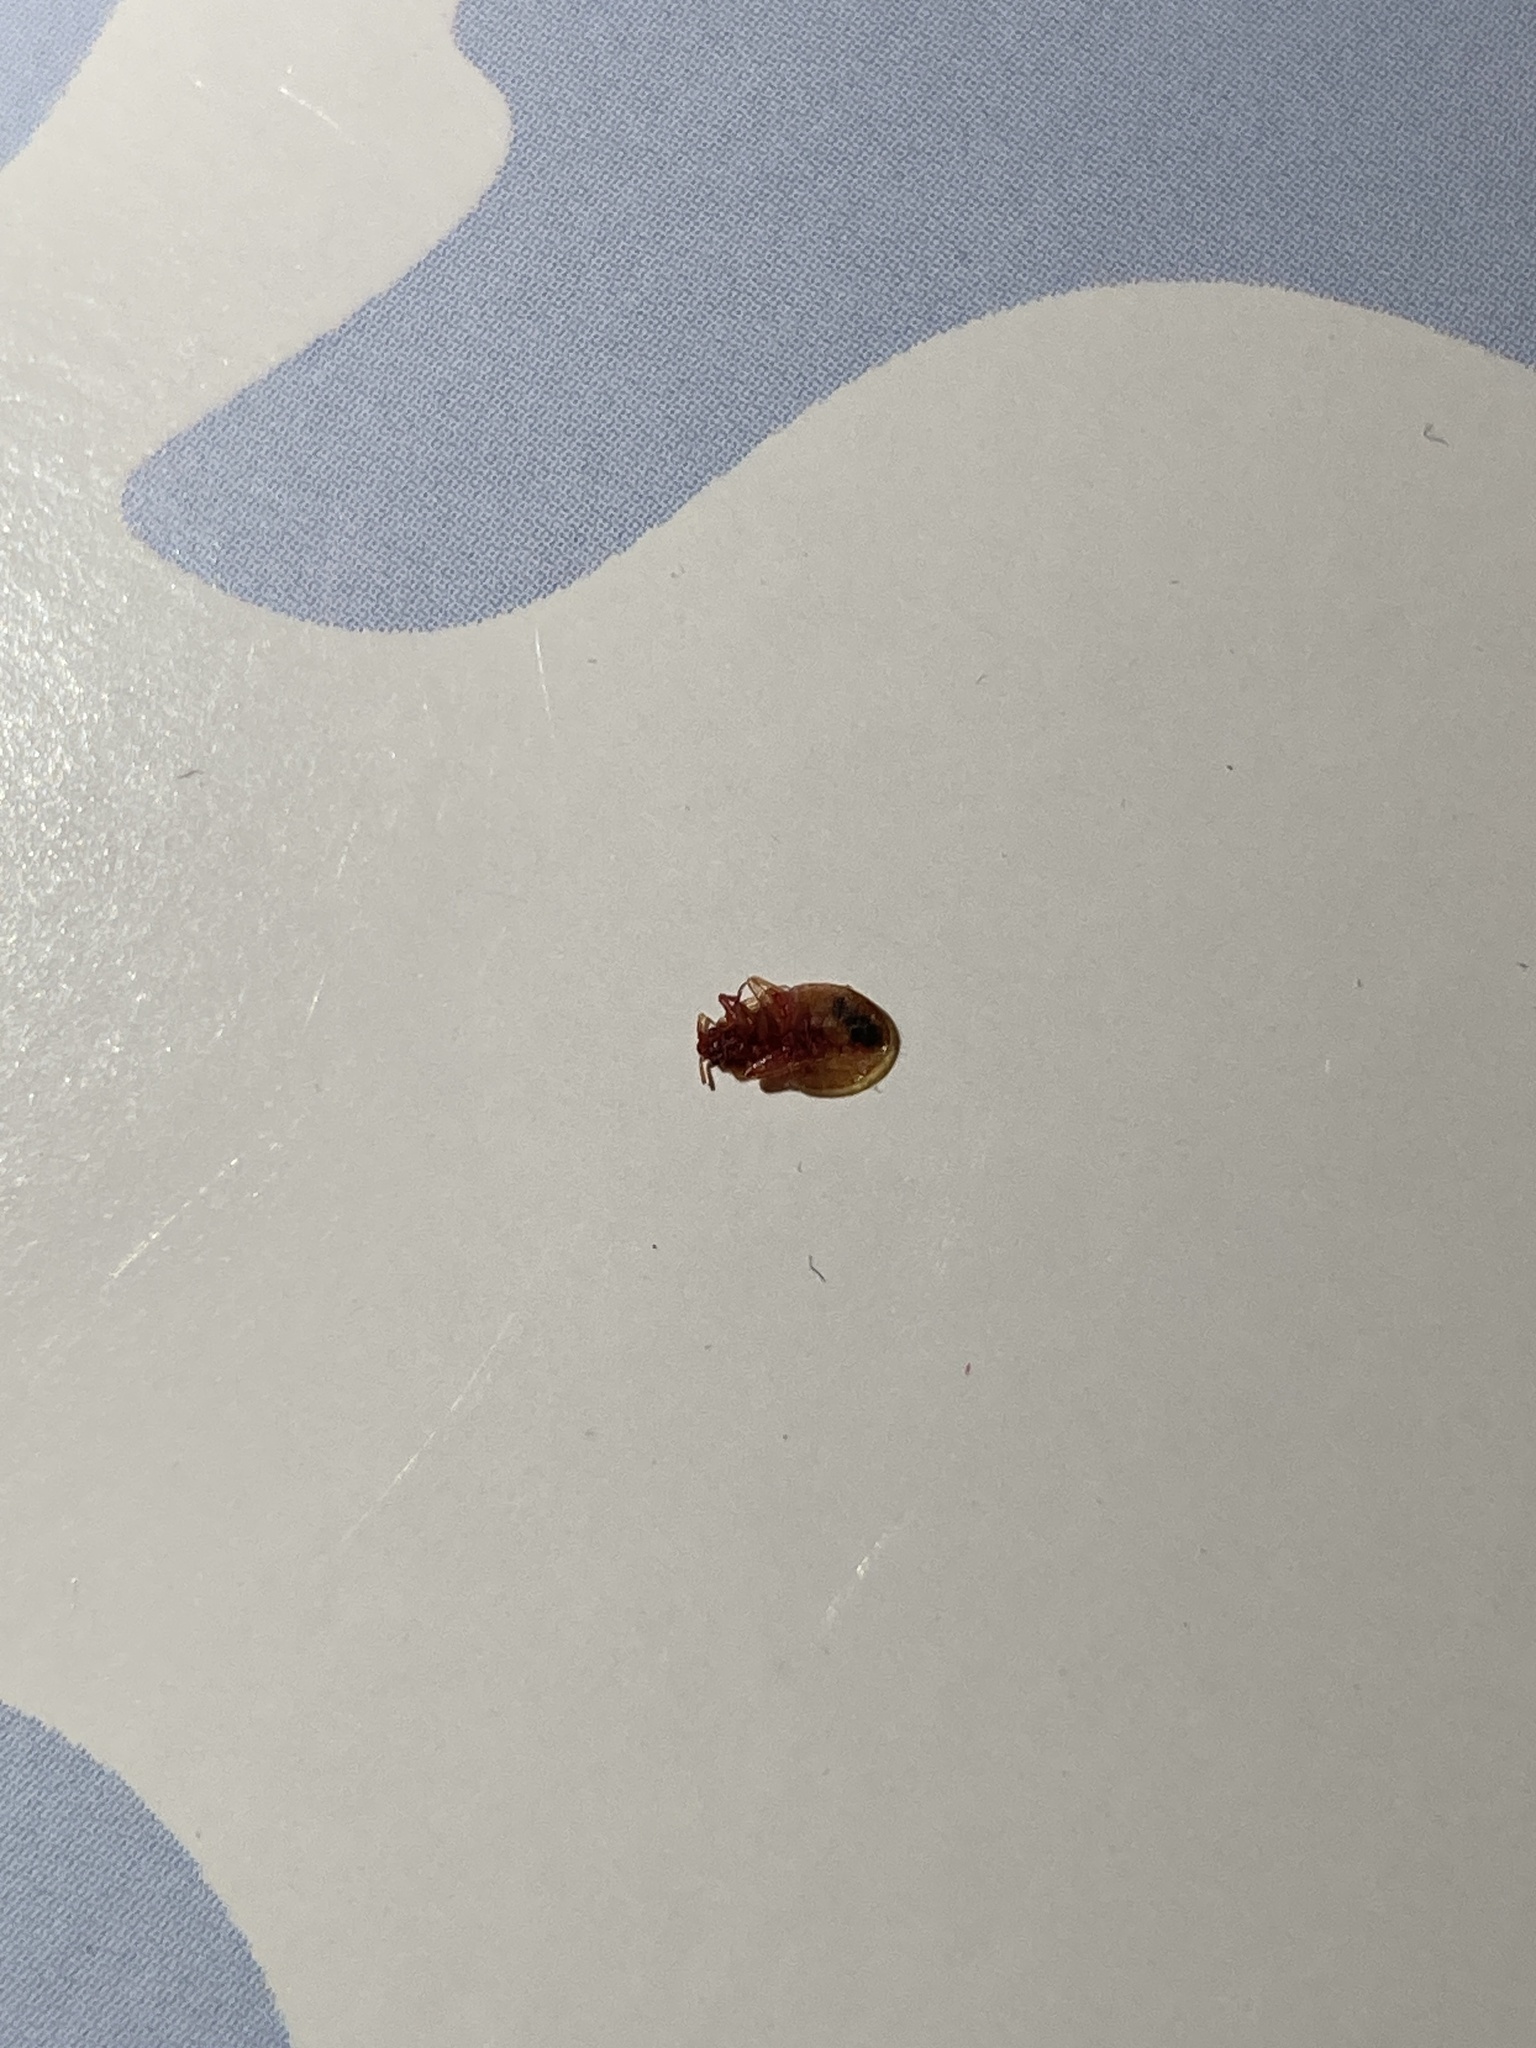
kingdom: Animalia
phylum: Arthropoda
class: Insecta
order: Hemiptera
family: Cimicidae
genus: Cimex
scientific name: Cimex lectularius
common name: Bed bug
